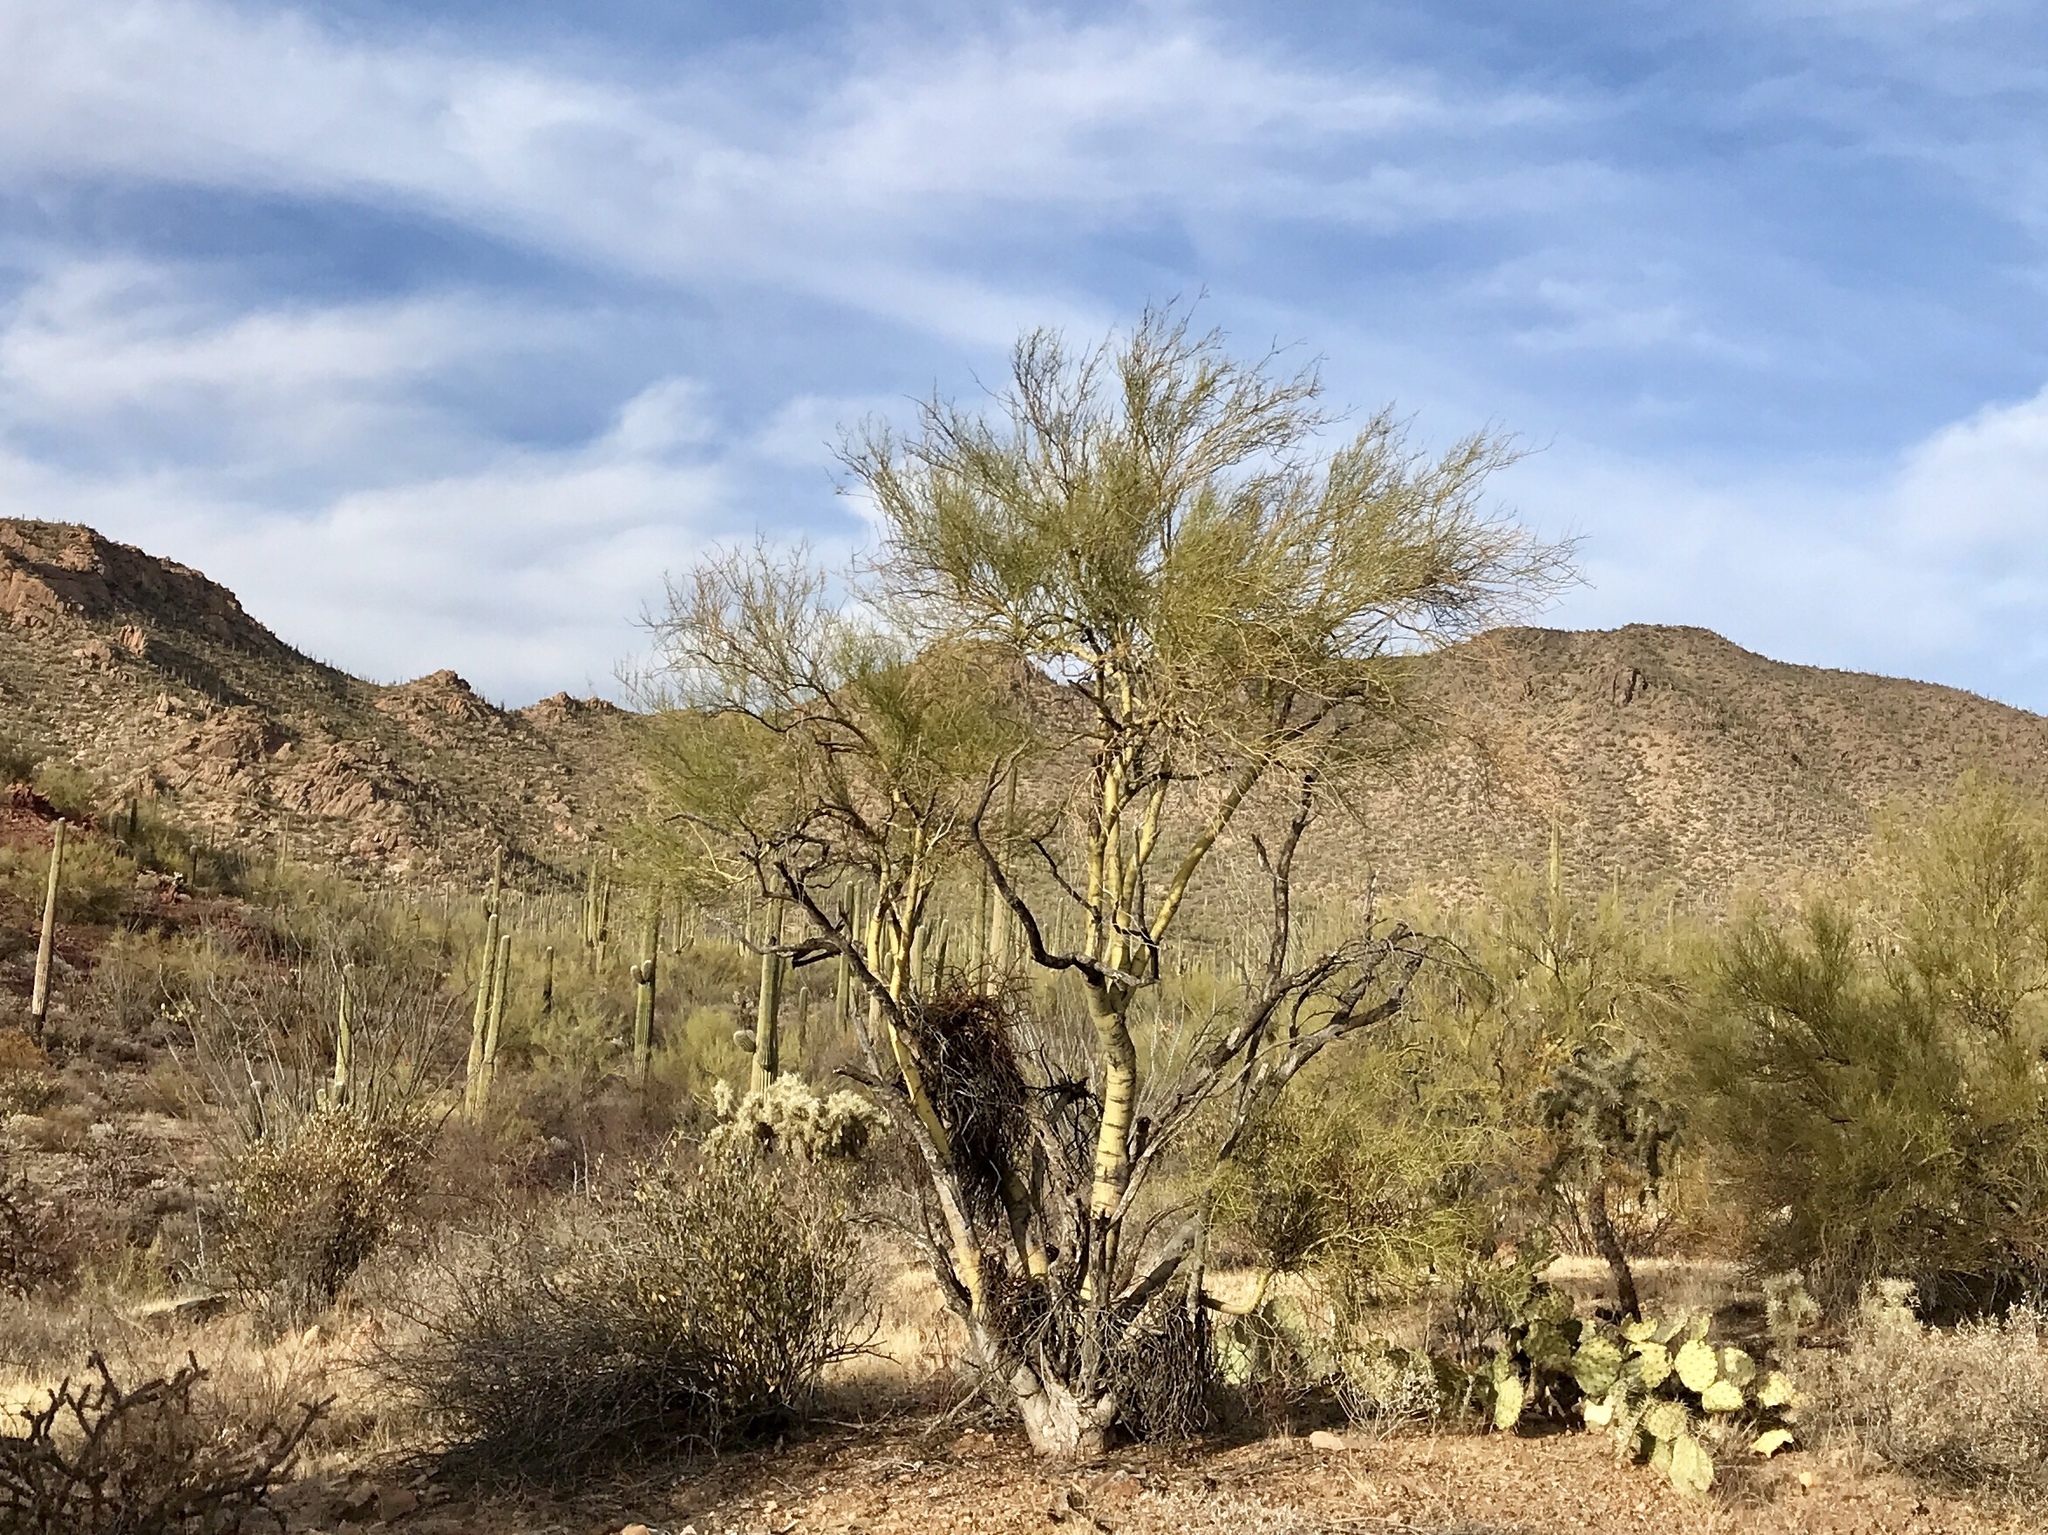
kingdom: Plantae
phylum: Tracheophyta
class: Magnoliopsida
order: Fabales
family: Fabaceae
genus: Parkinsonia
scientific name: Parkinsonia microphylla
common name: Yellow paloverde
